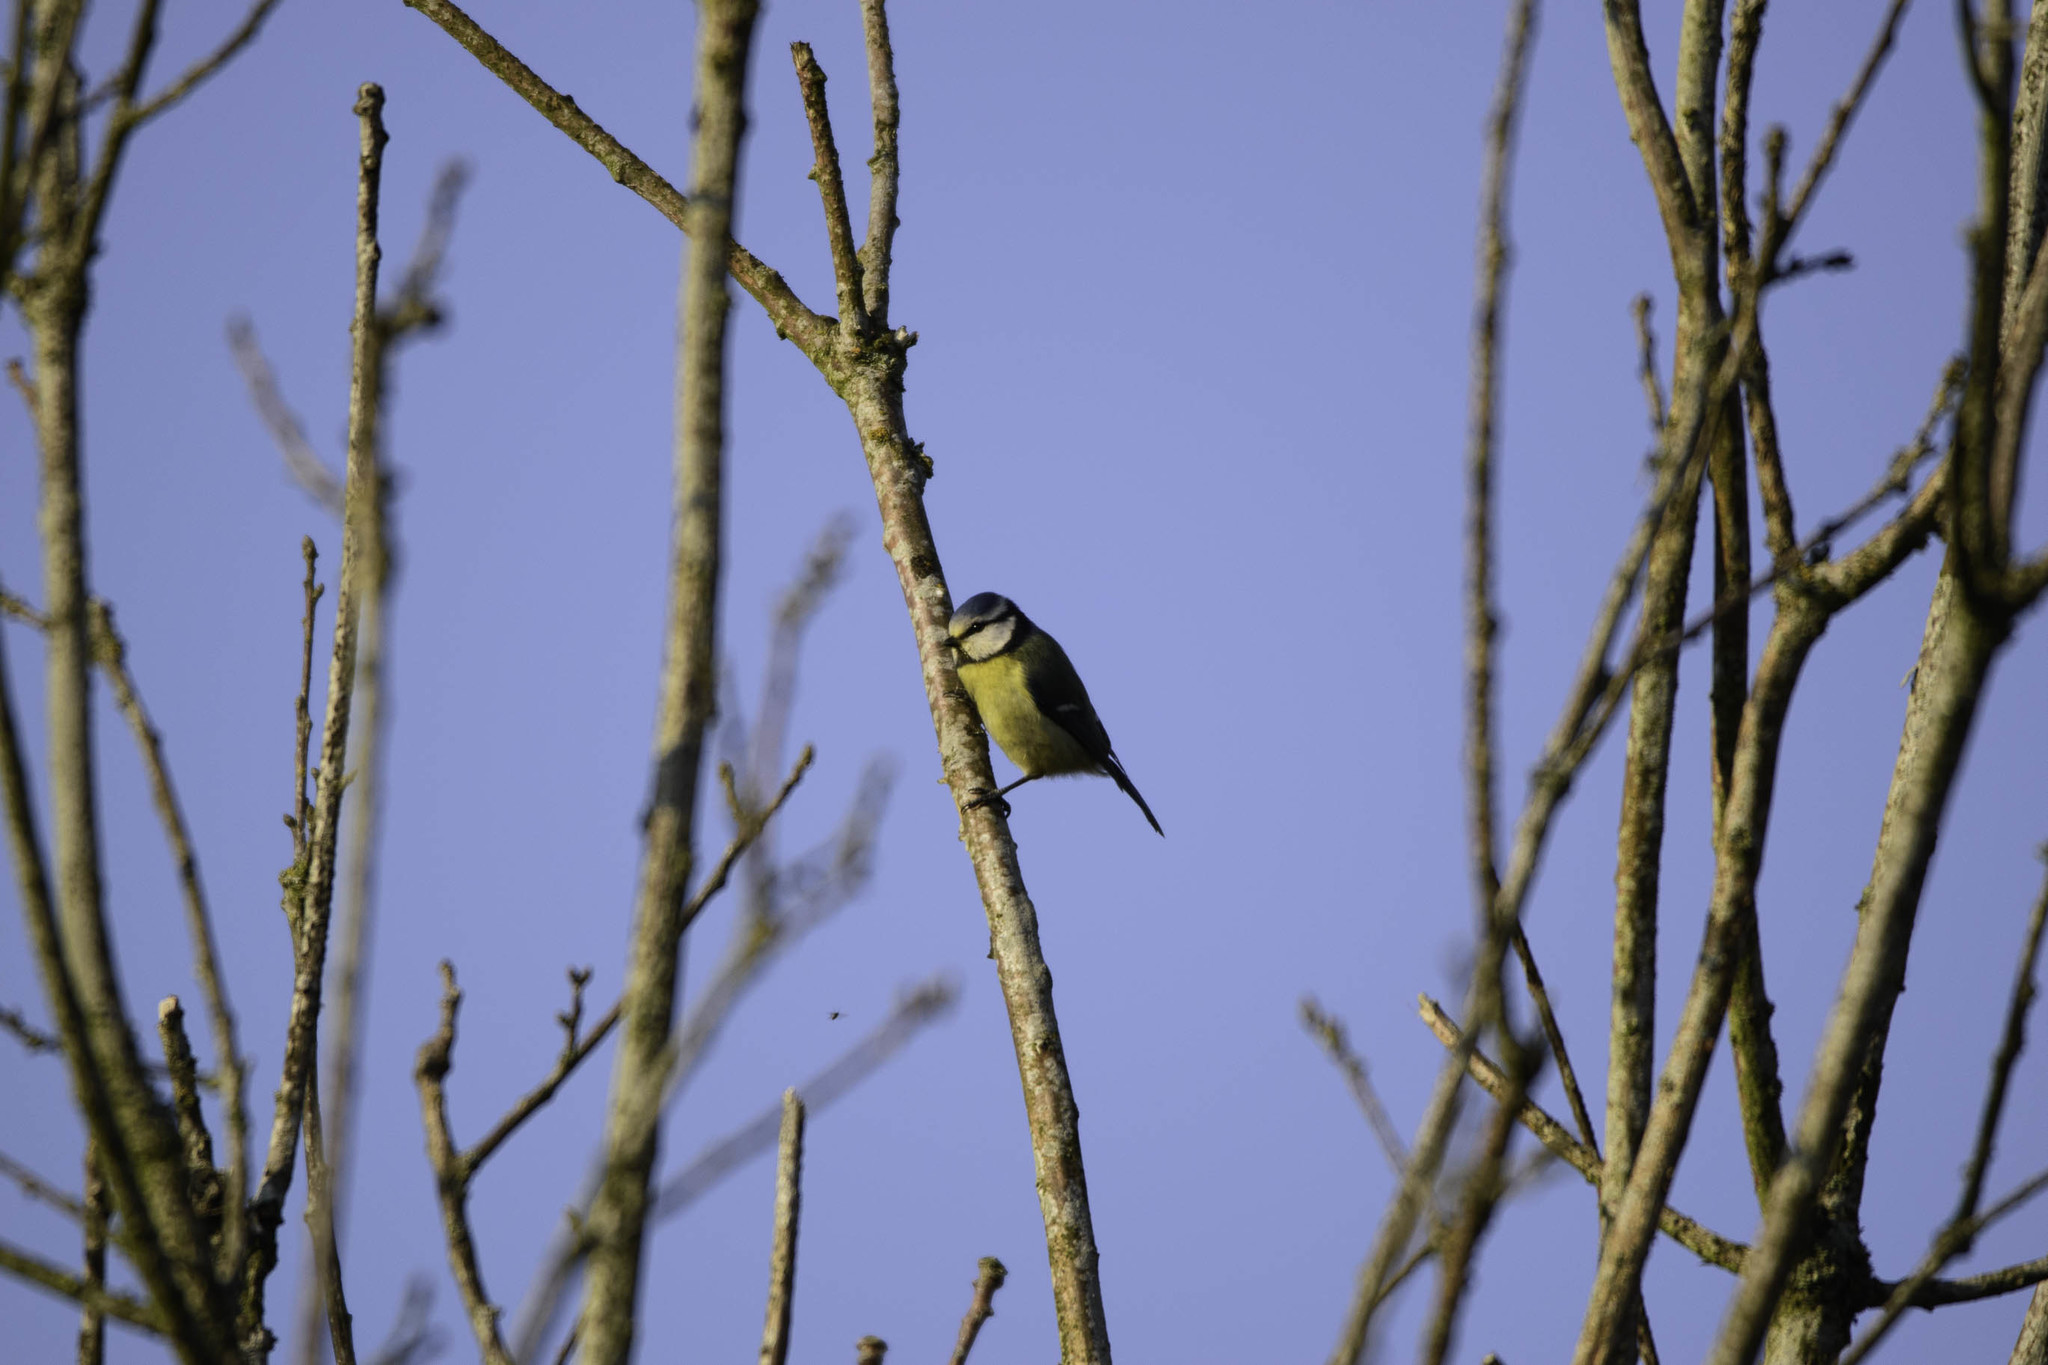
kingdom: Animalia
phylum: Chordata
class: Aves
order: Passeriformes
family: Paridae
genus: Cyanistes
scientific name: Cyanistes caeruleus
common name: Eurasian blue tit
